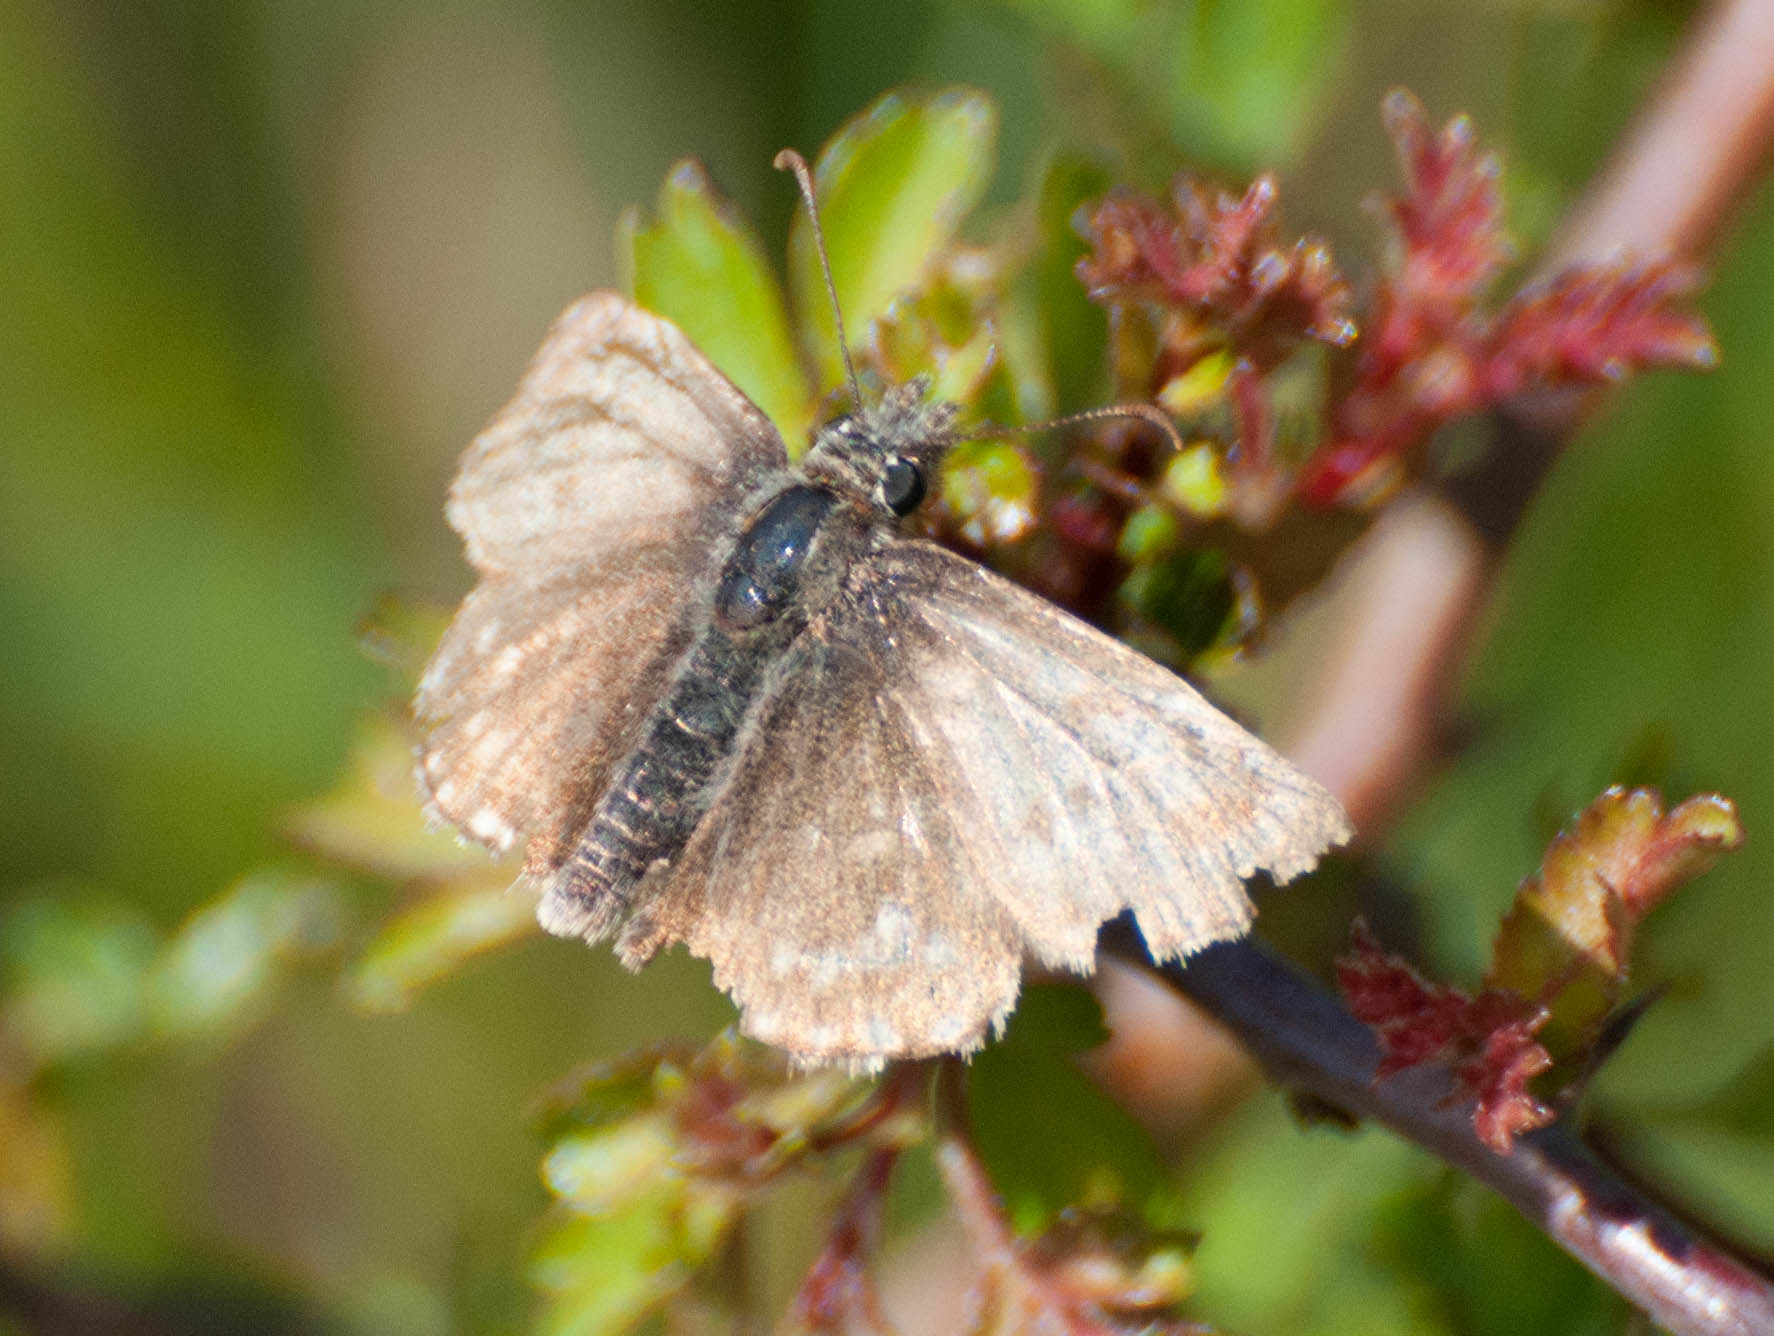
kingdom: Animalia
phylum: Arthropoda
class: Insecta
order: Lepidoptera
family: Hesperiidae
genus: Erynnis
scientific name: Erynnis tages
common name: Dingy skipper
